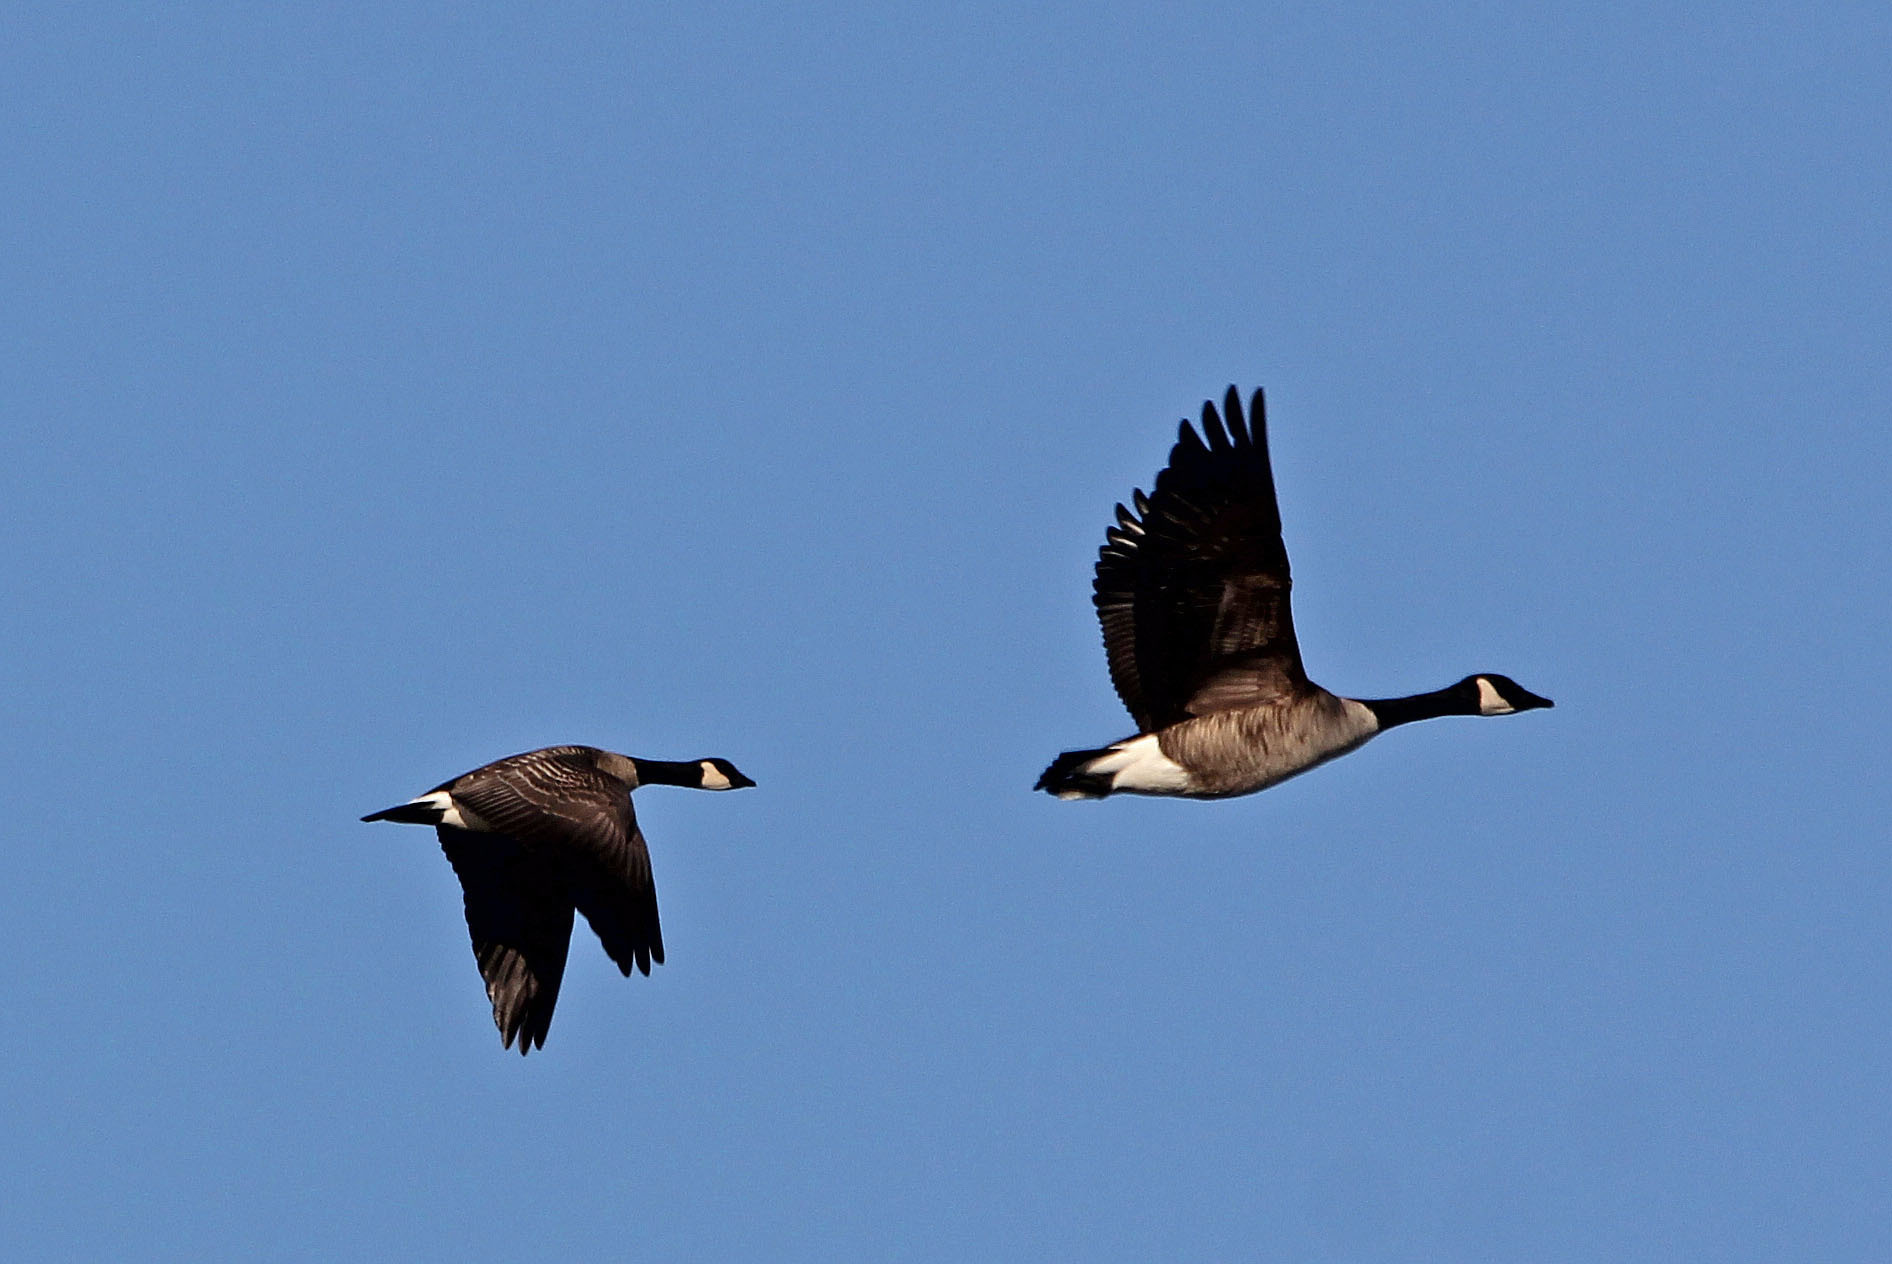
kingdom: Animalia
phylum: Chordata
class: Aves
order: Anseriformes
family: Anatidae
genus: Branta
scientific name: Branta hutchinsii
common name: Cackling goose
